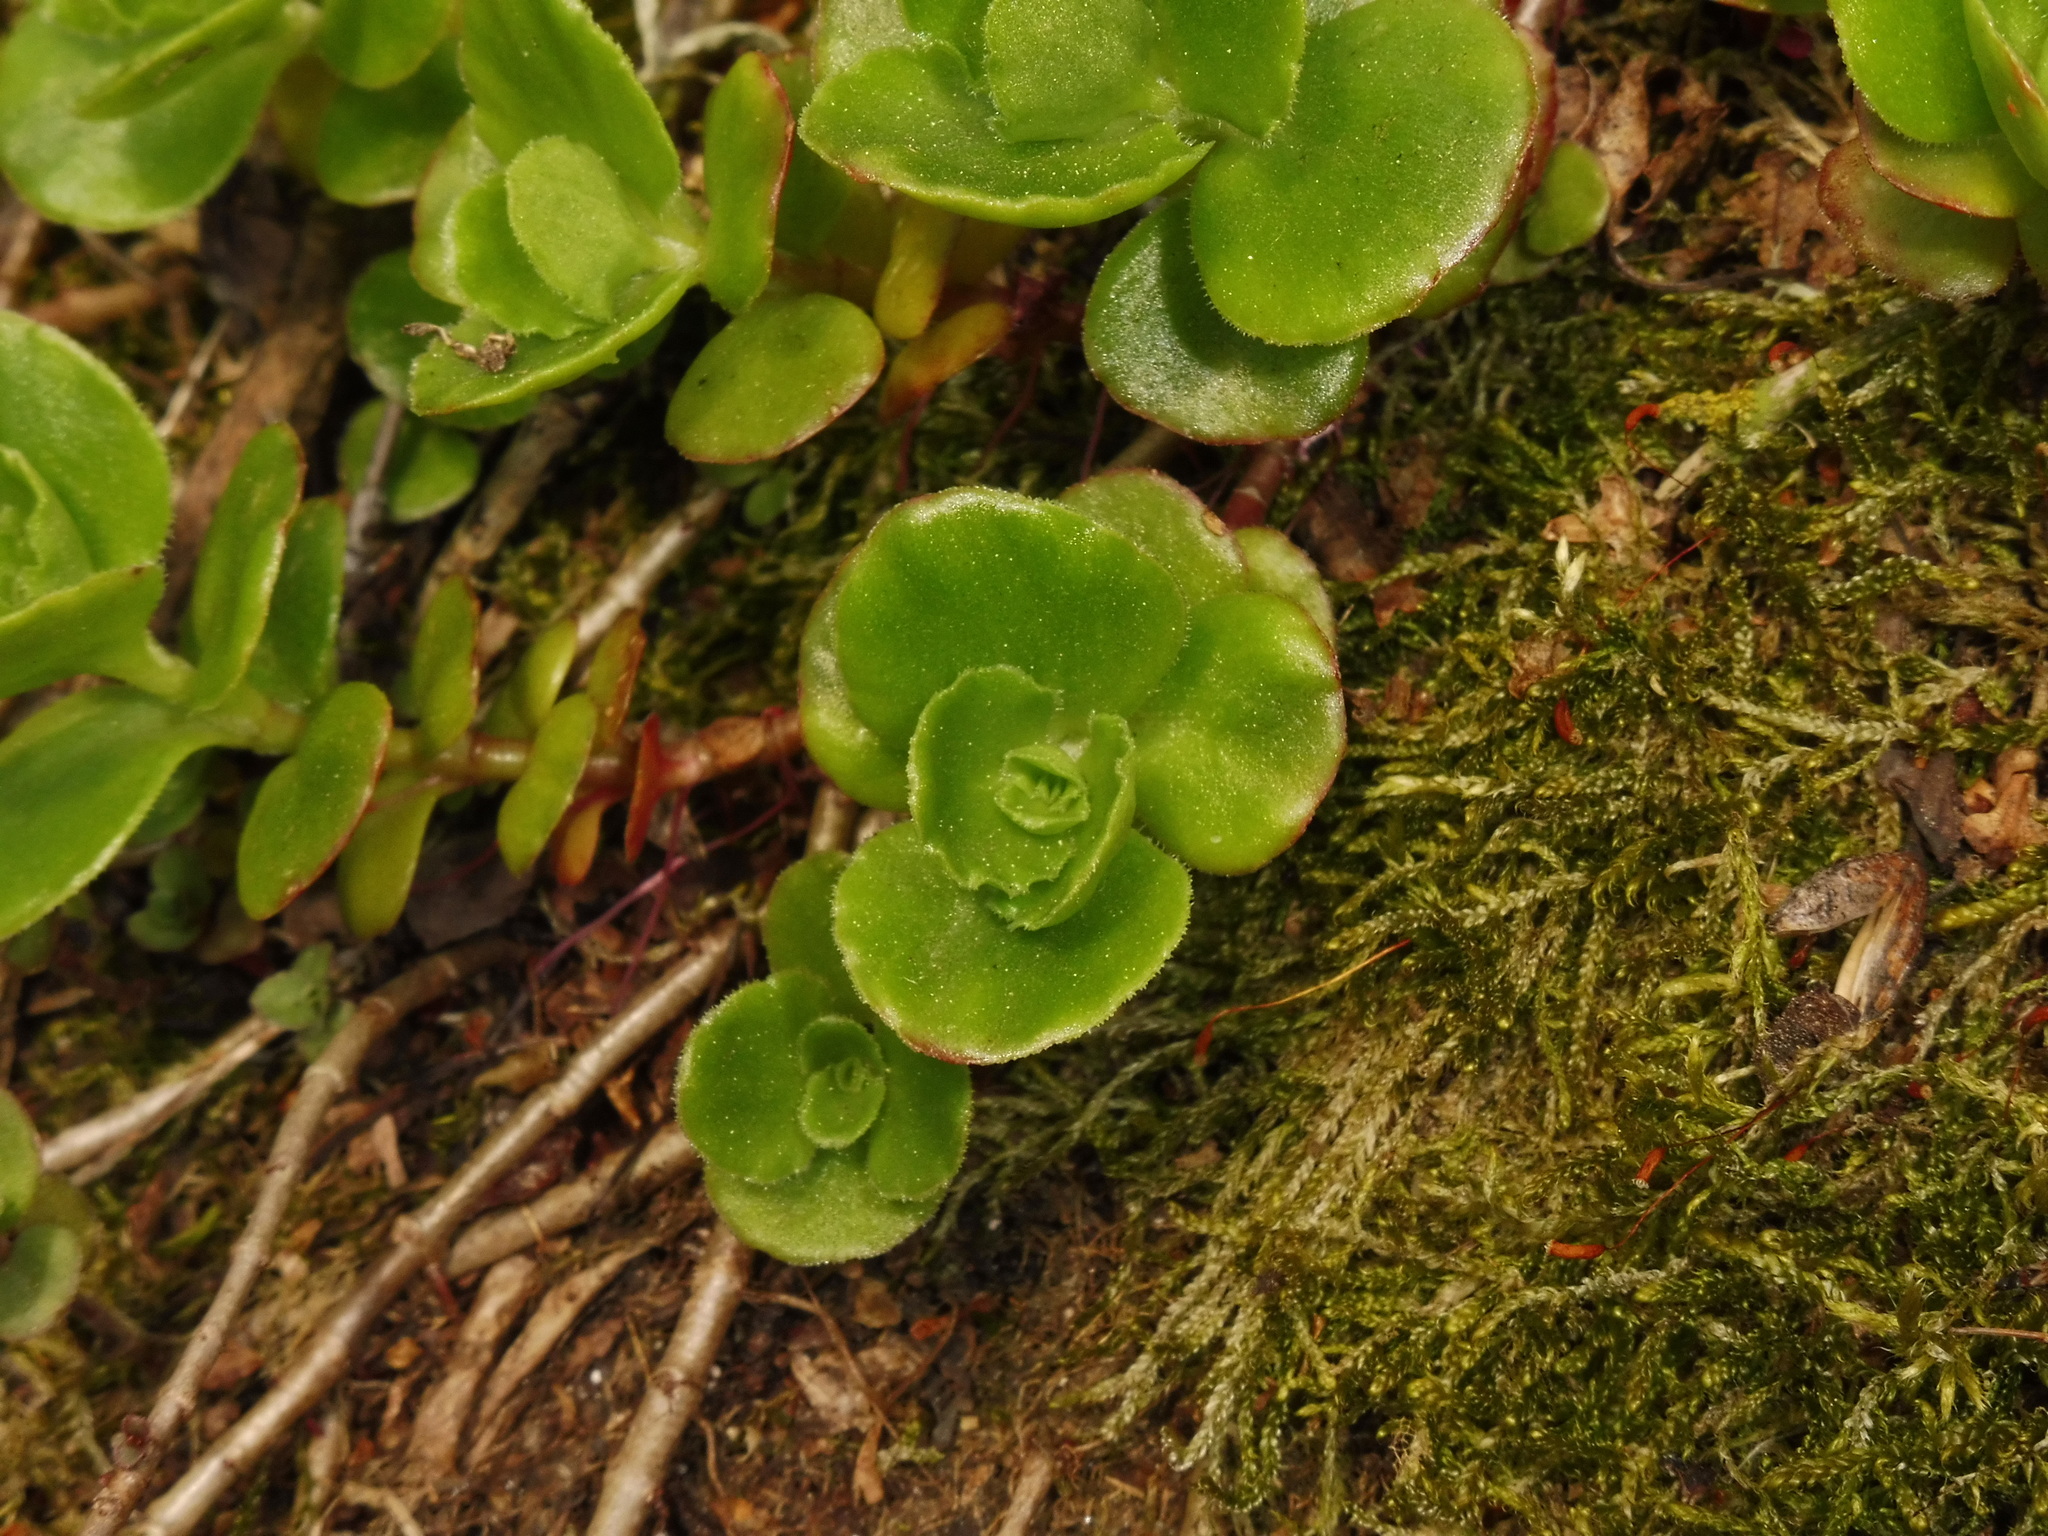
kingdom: Plantae
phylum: Tracheophyta
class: Magnoliopsida
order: Saxifragales
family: Crassulaceae
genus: Phedimus
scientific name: Phedimus spurius
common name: Caucasian stonecrop
